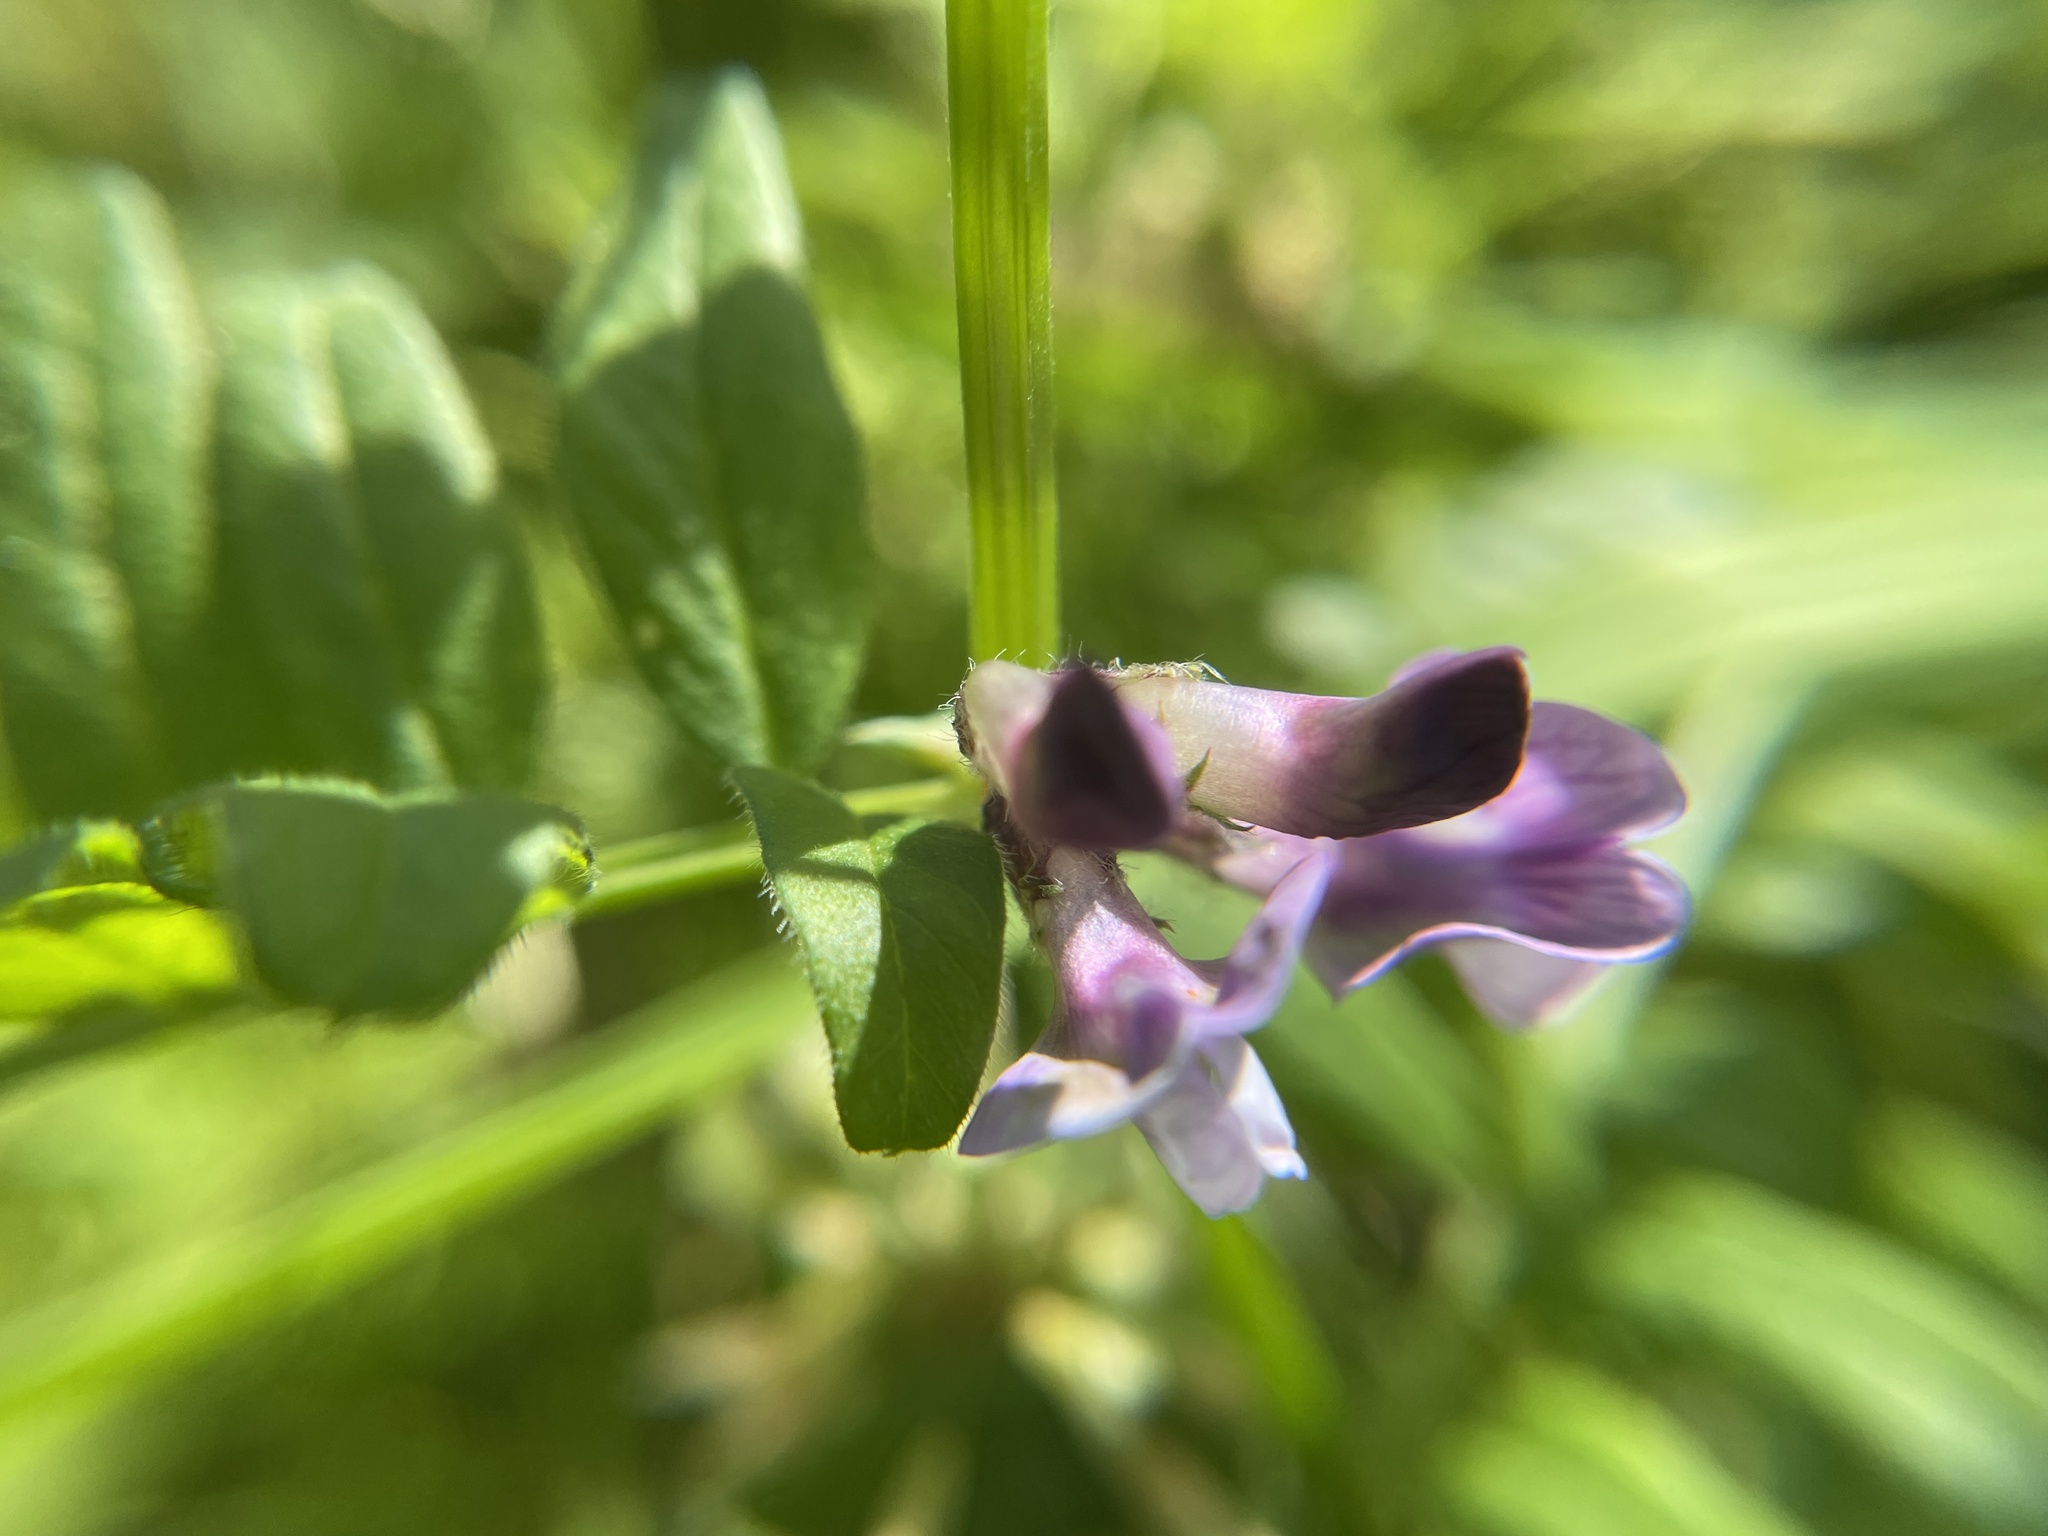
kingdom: Plantae
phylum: Tracheophyta
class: Magnoliopsida
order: Fabales
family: Fabaceae
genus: Vicia
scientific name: Vicia sepium
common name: Bush vetch
